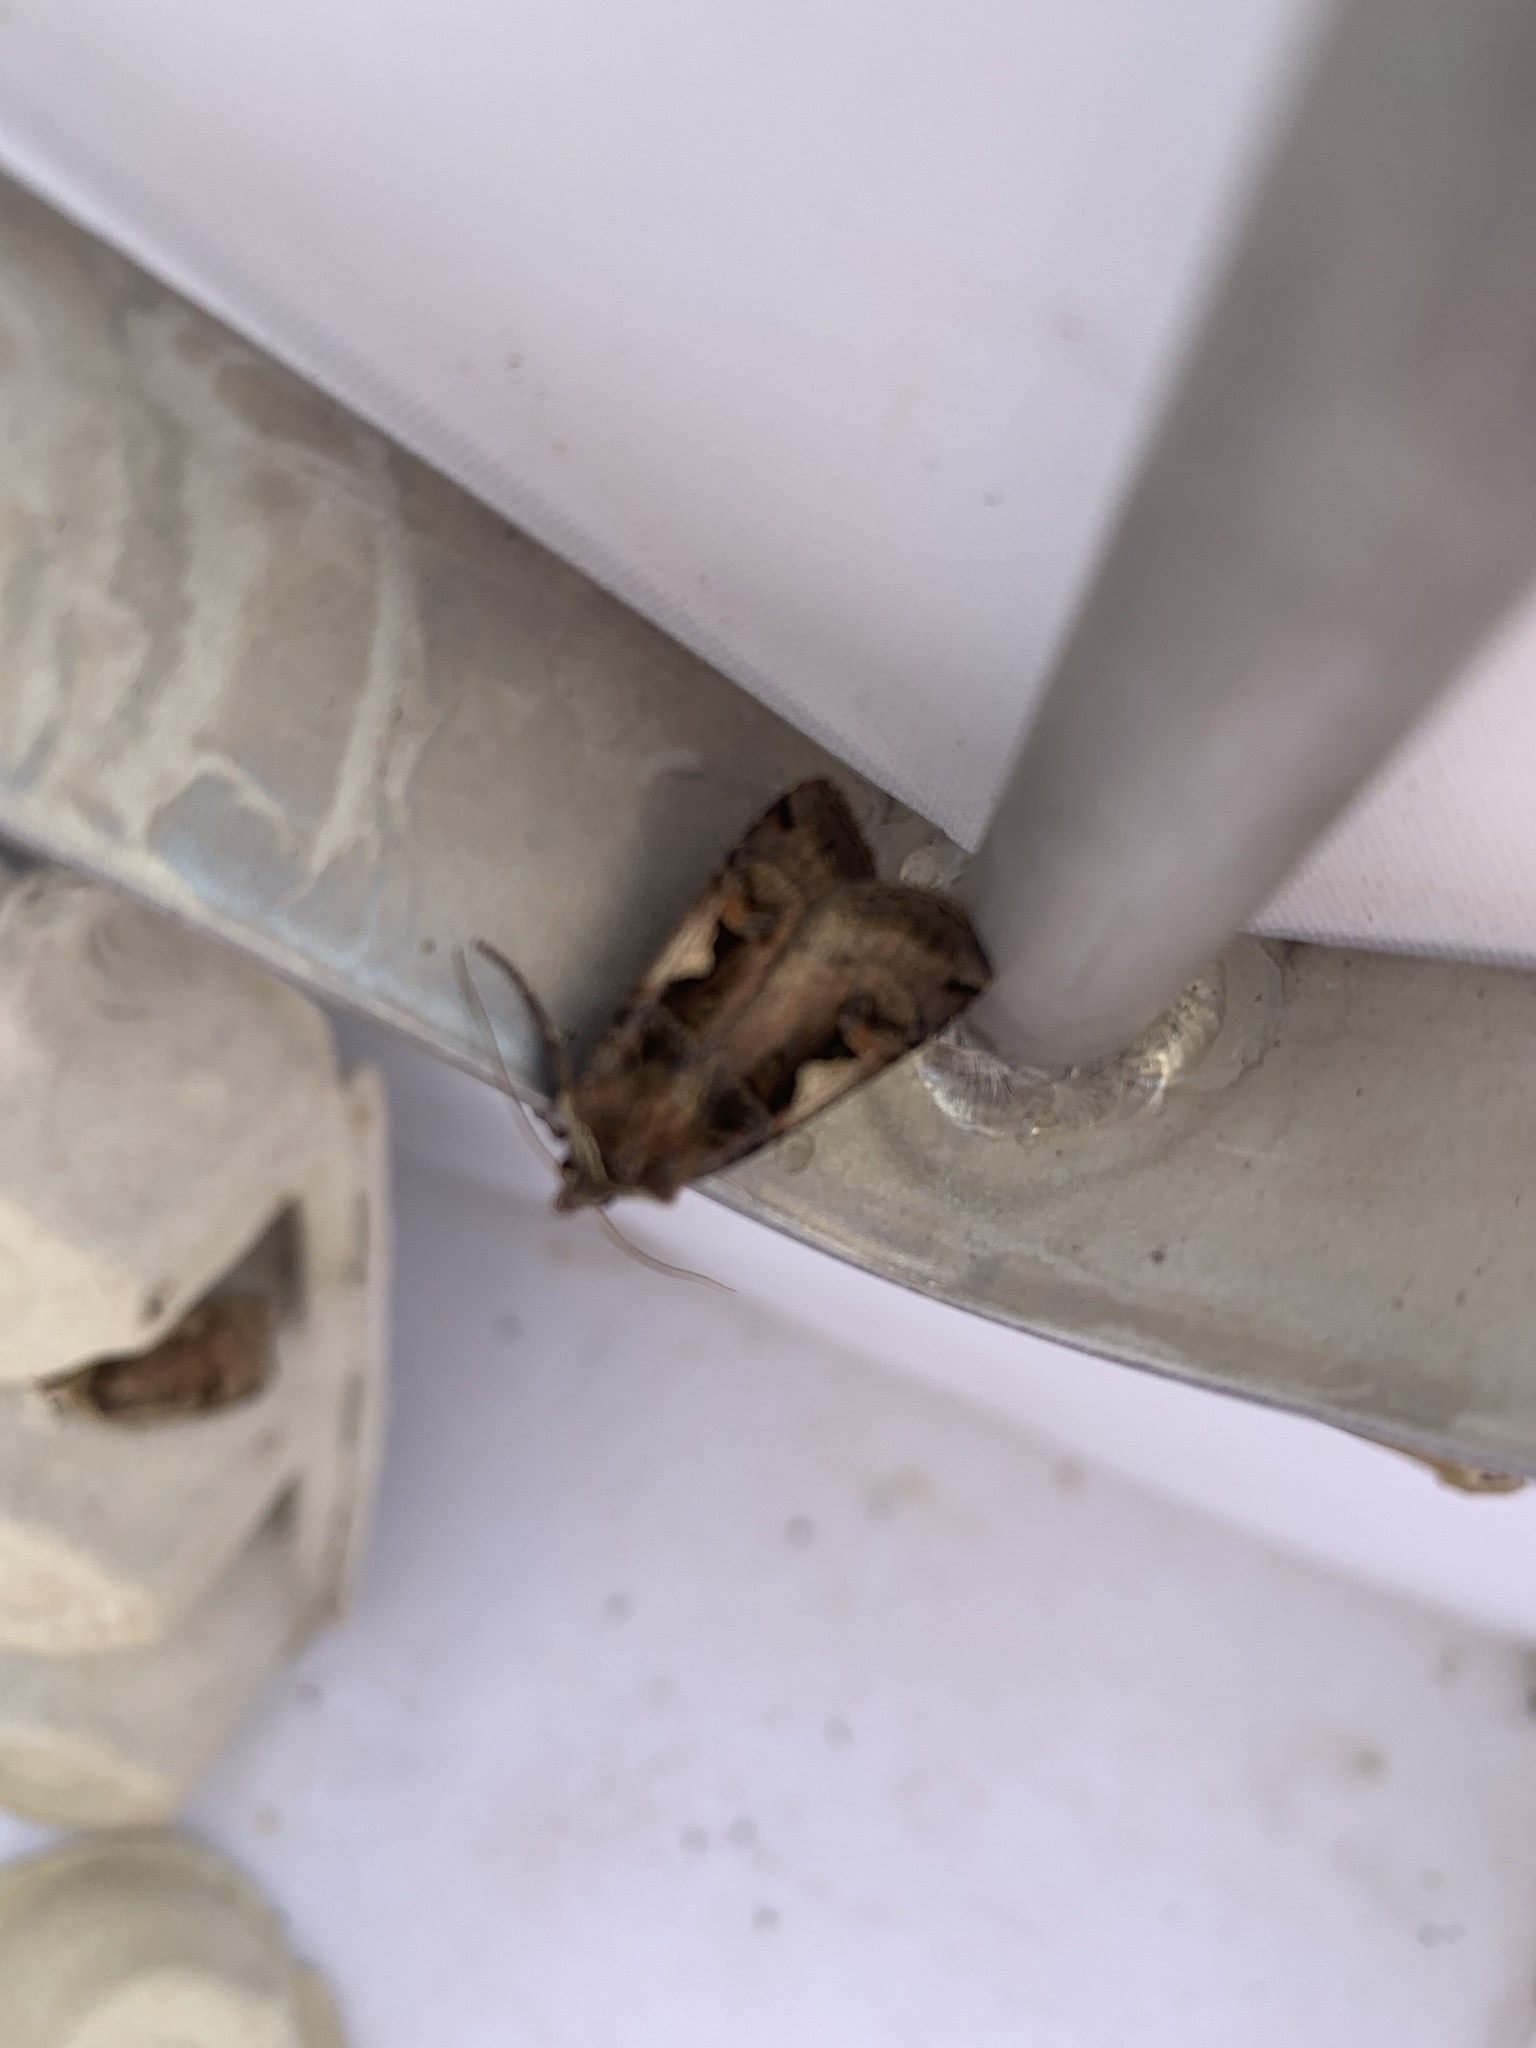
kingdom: Animalia
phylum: Arthropoda
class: Insecta
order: Lepidoptera
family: Noctuidae
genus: Xestia
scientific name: Xestia c-nigrum
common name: Setaceous hebrew character
